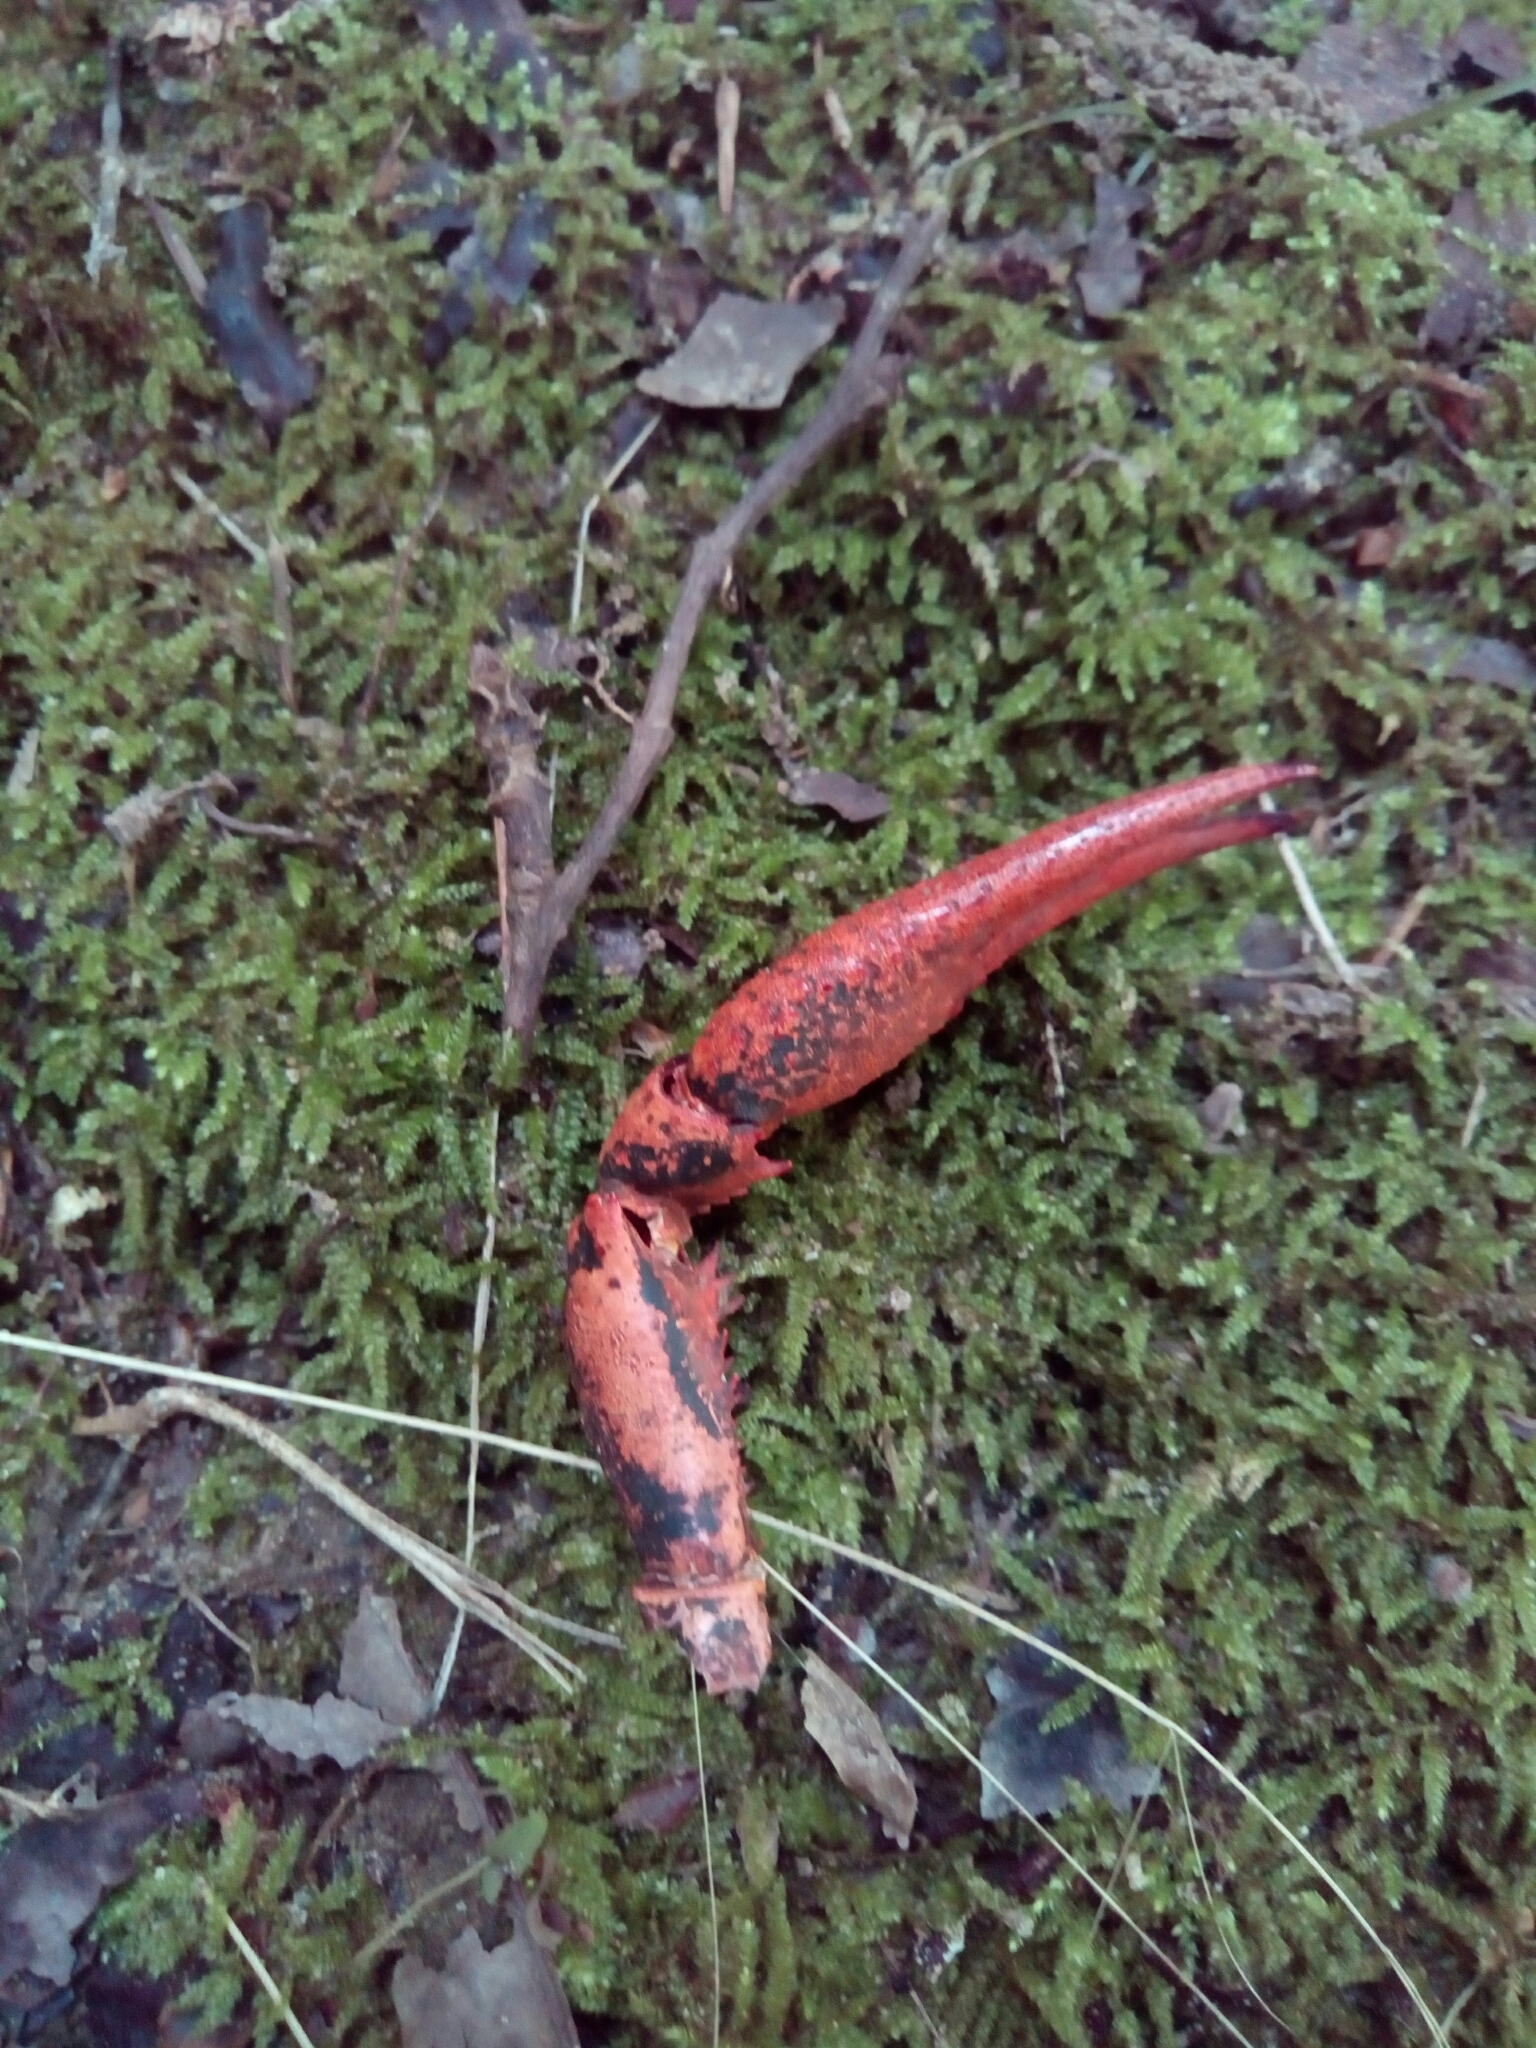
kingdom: Animalia
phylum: Arthropoda
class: Malacostraca
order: Decapoda
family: Cambaridae
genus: Procambarus
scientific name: Procambarus clarkii
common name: Red swamp crayfish
